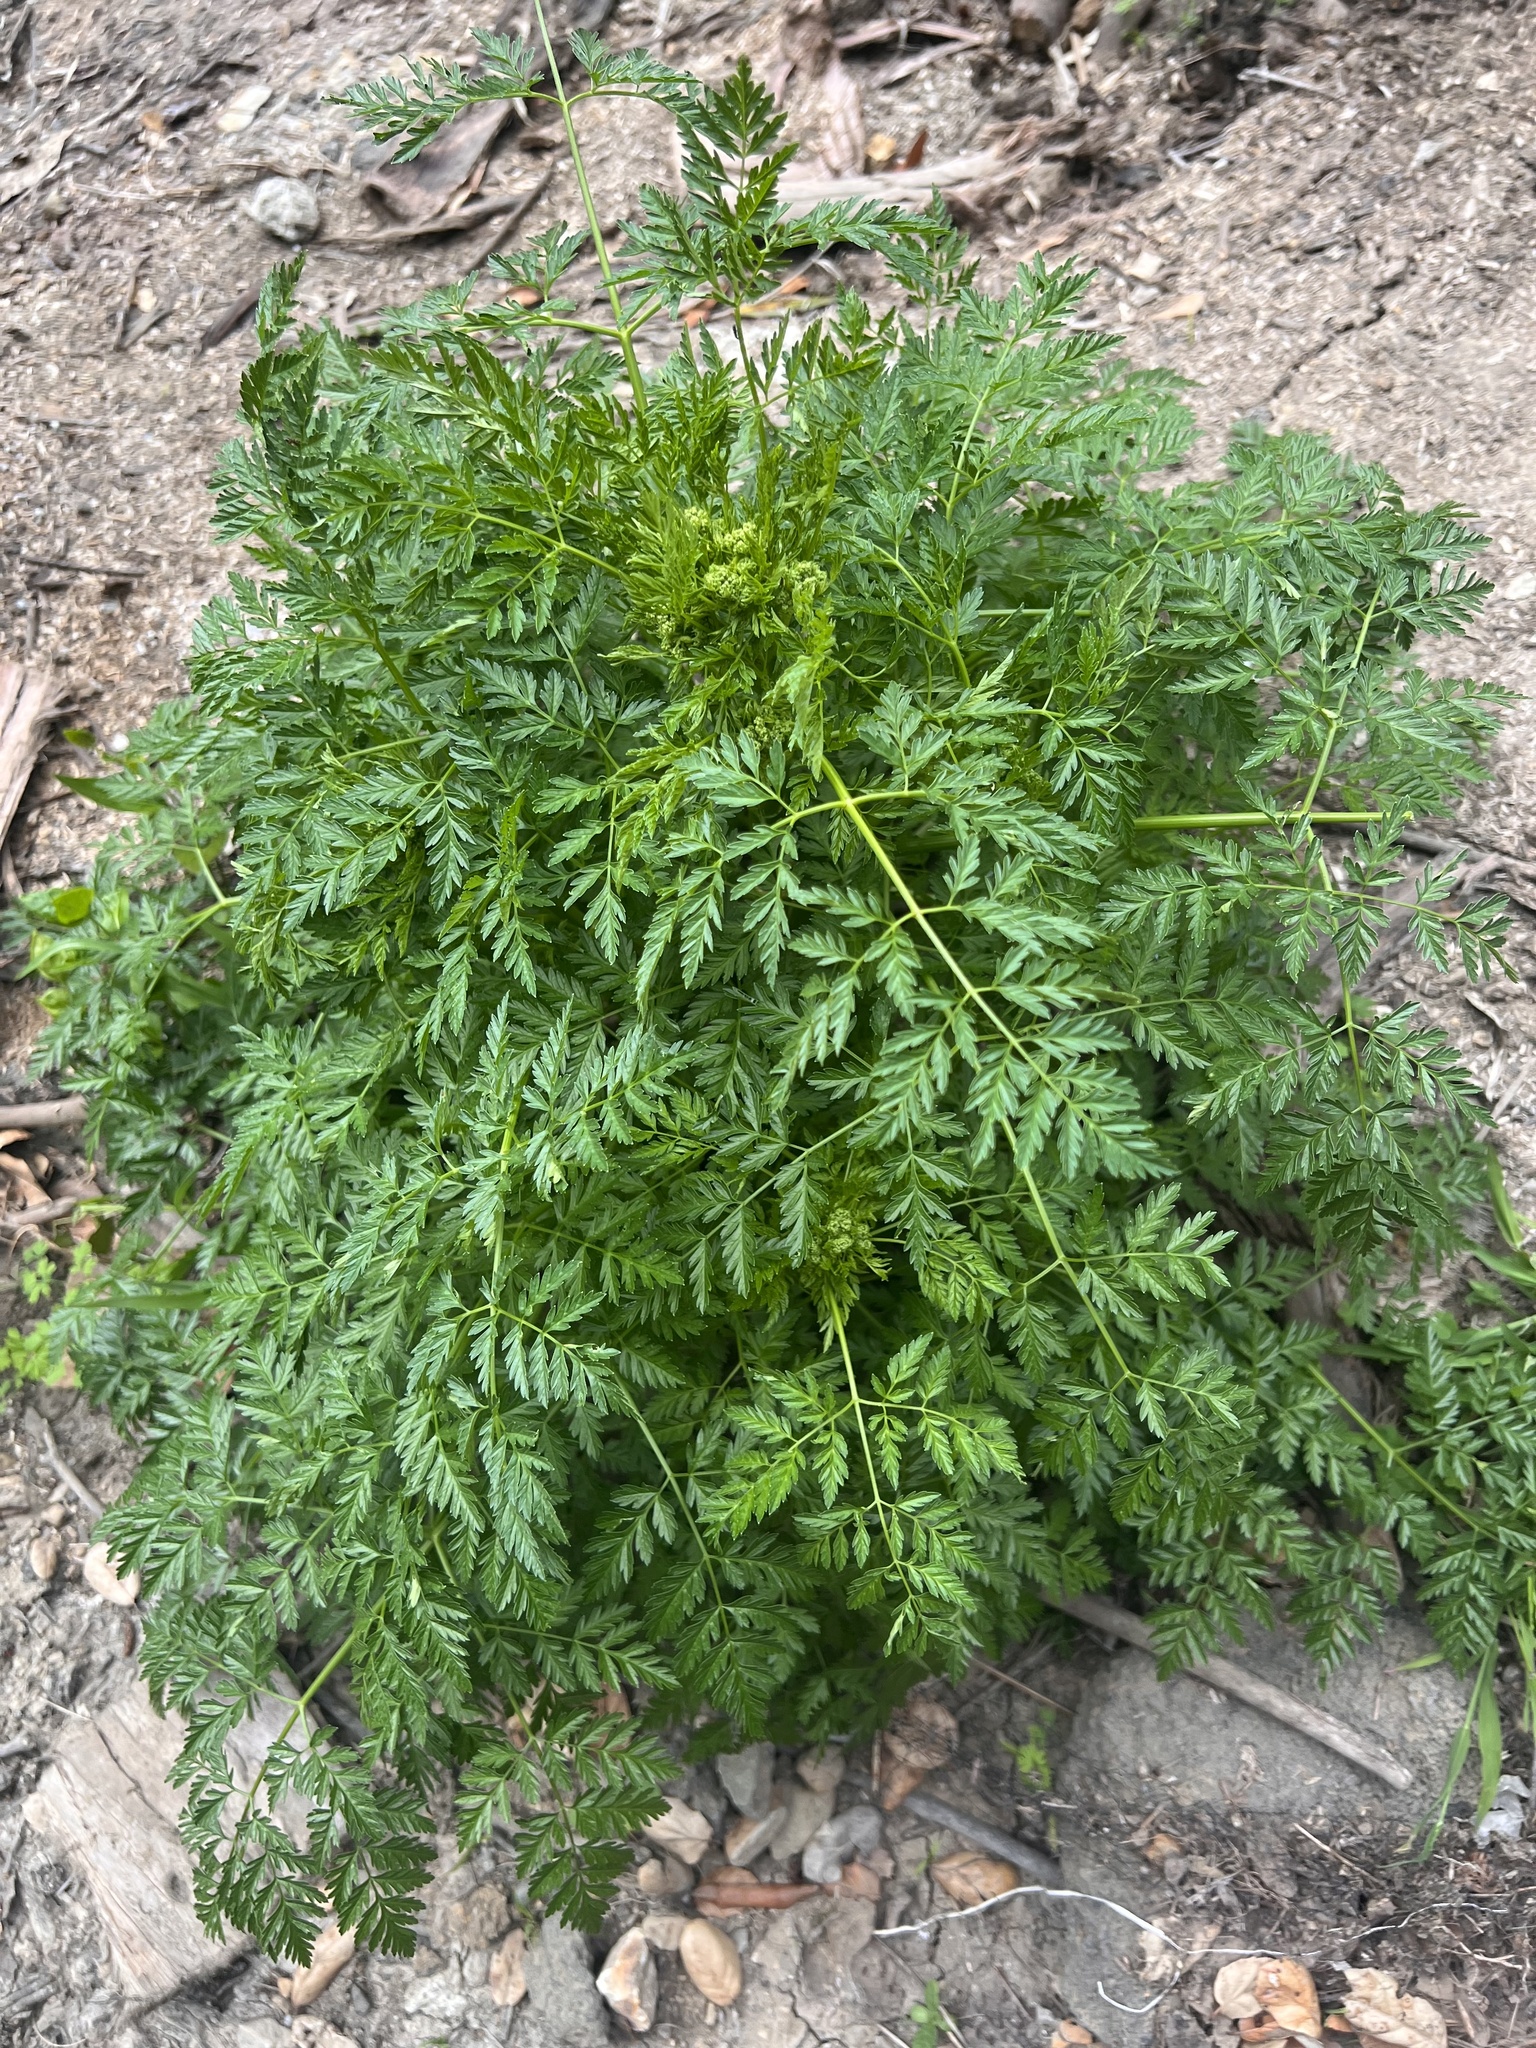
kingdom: Plantae
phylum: Tracheophyta
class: Magnoliopsida
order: Apiales
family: Apiaceae
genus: Conium
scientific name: Conium maculatum
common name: Hemlock
